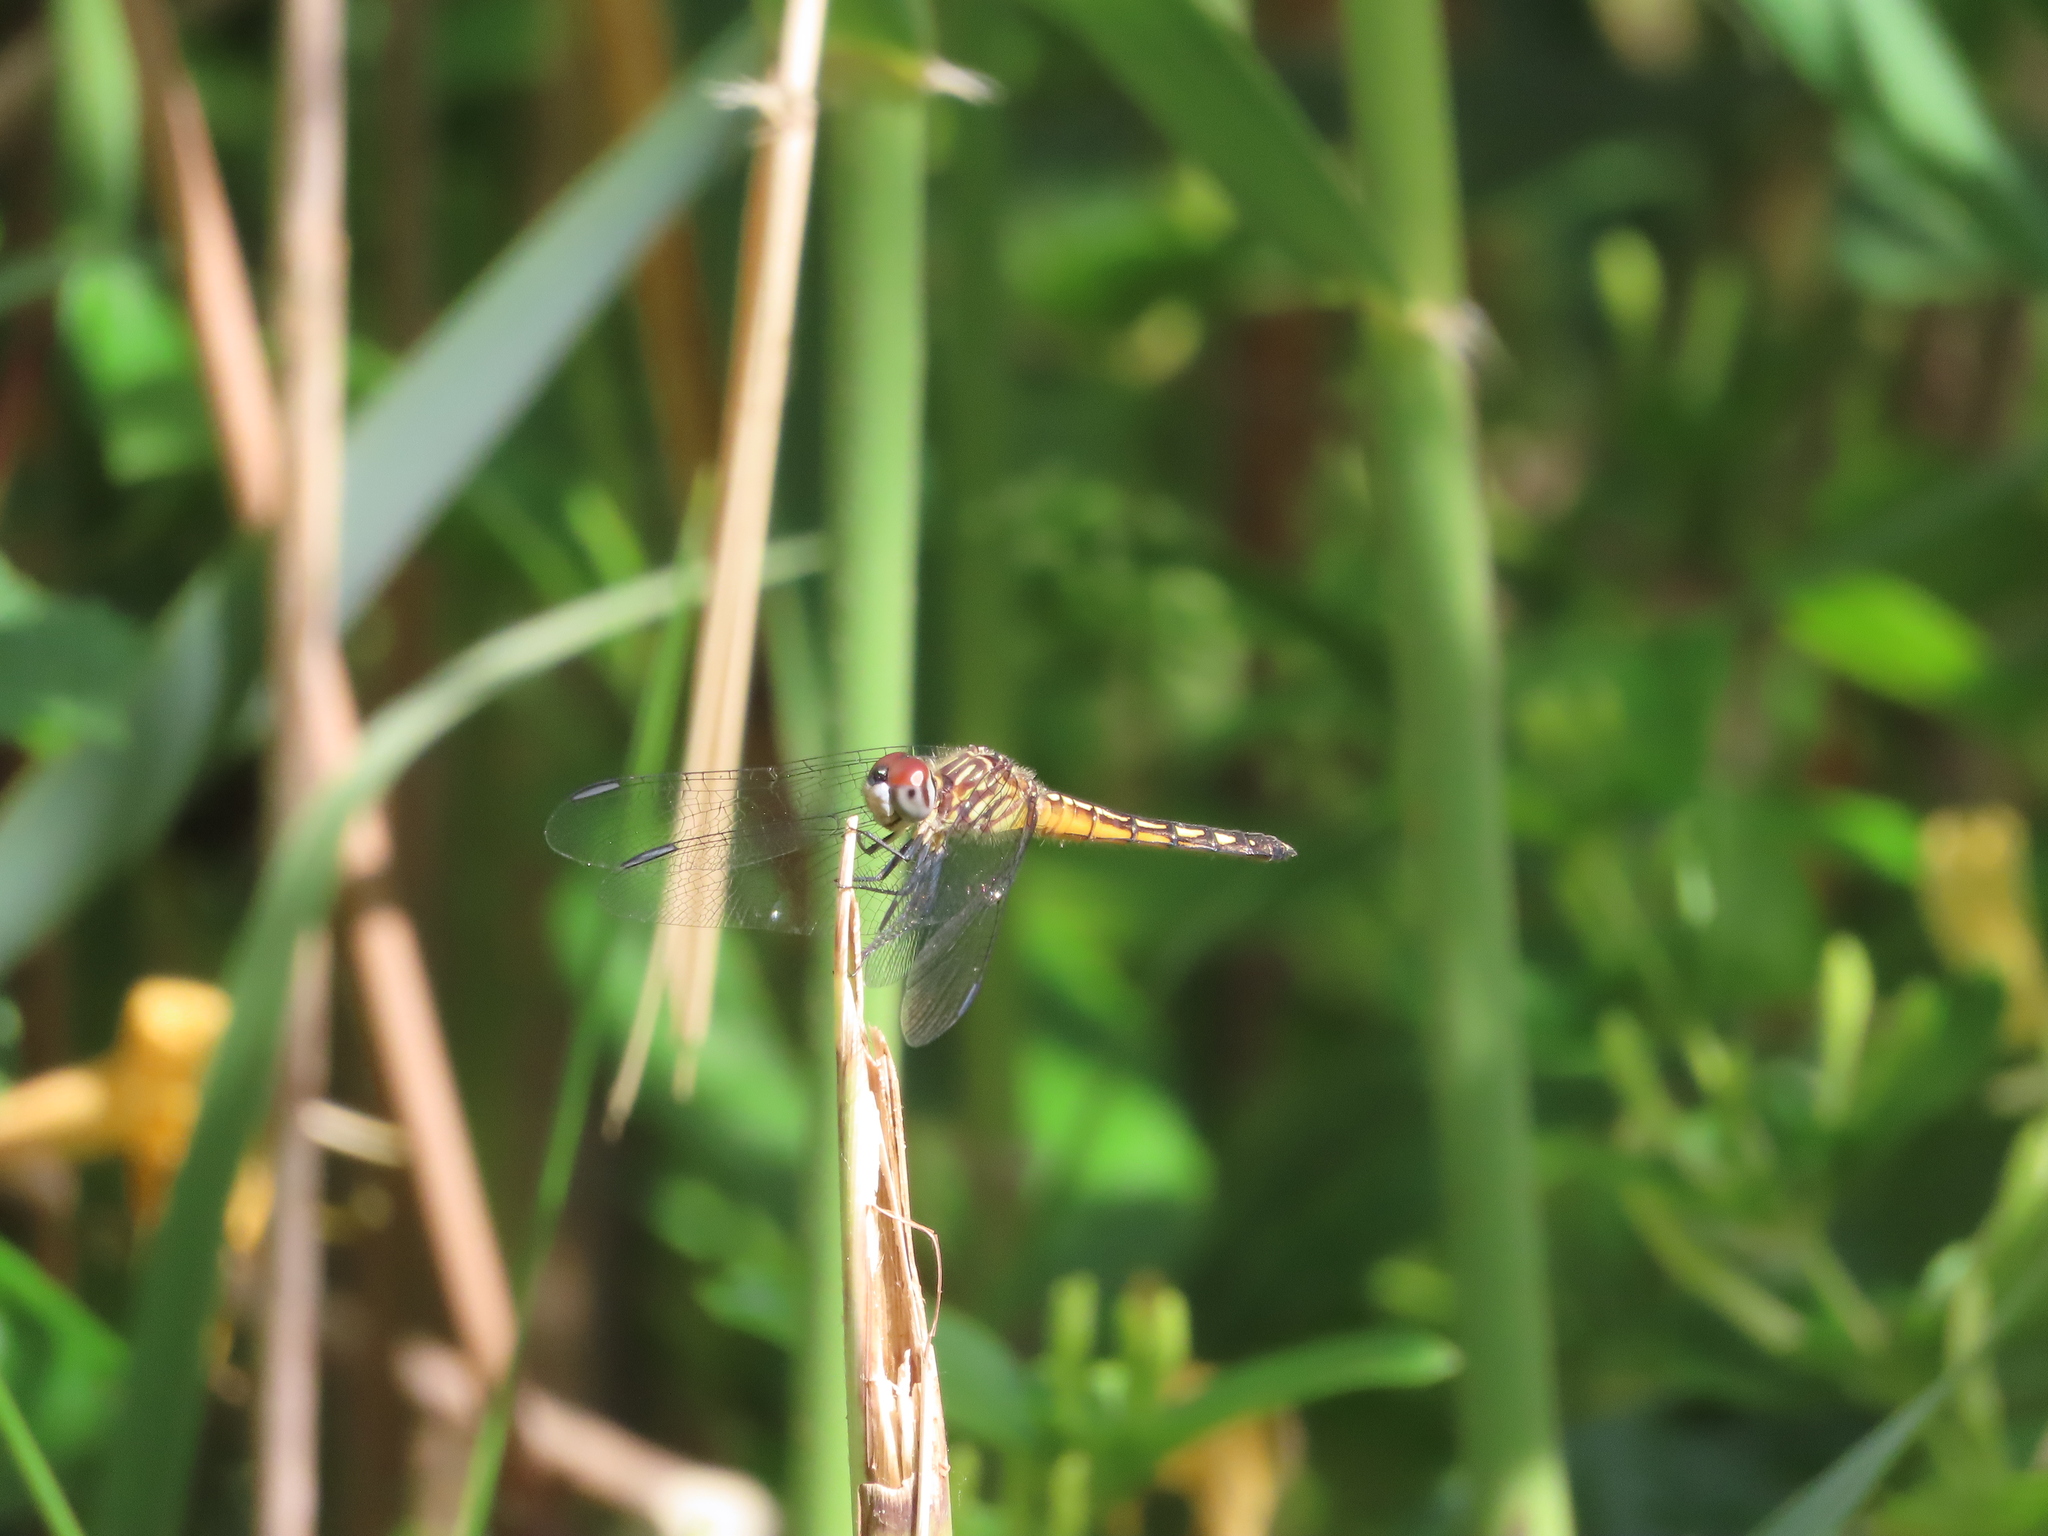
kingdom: Animalia
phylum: Arthropoda
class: Insecta
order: Odonata
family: Libellulidae
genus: Pachydiplax
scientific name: Pachydiplax longipennis
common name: Blue dasher
